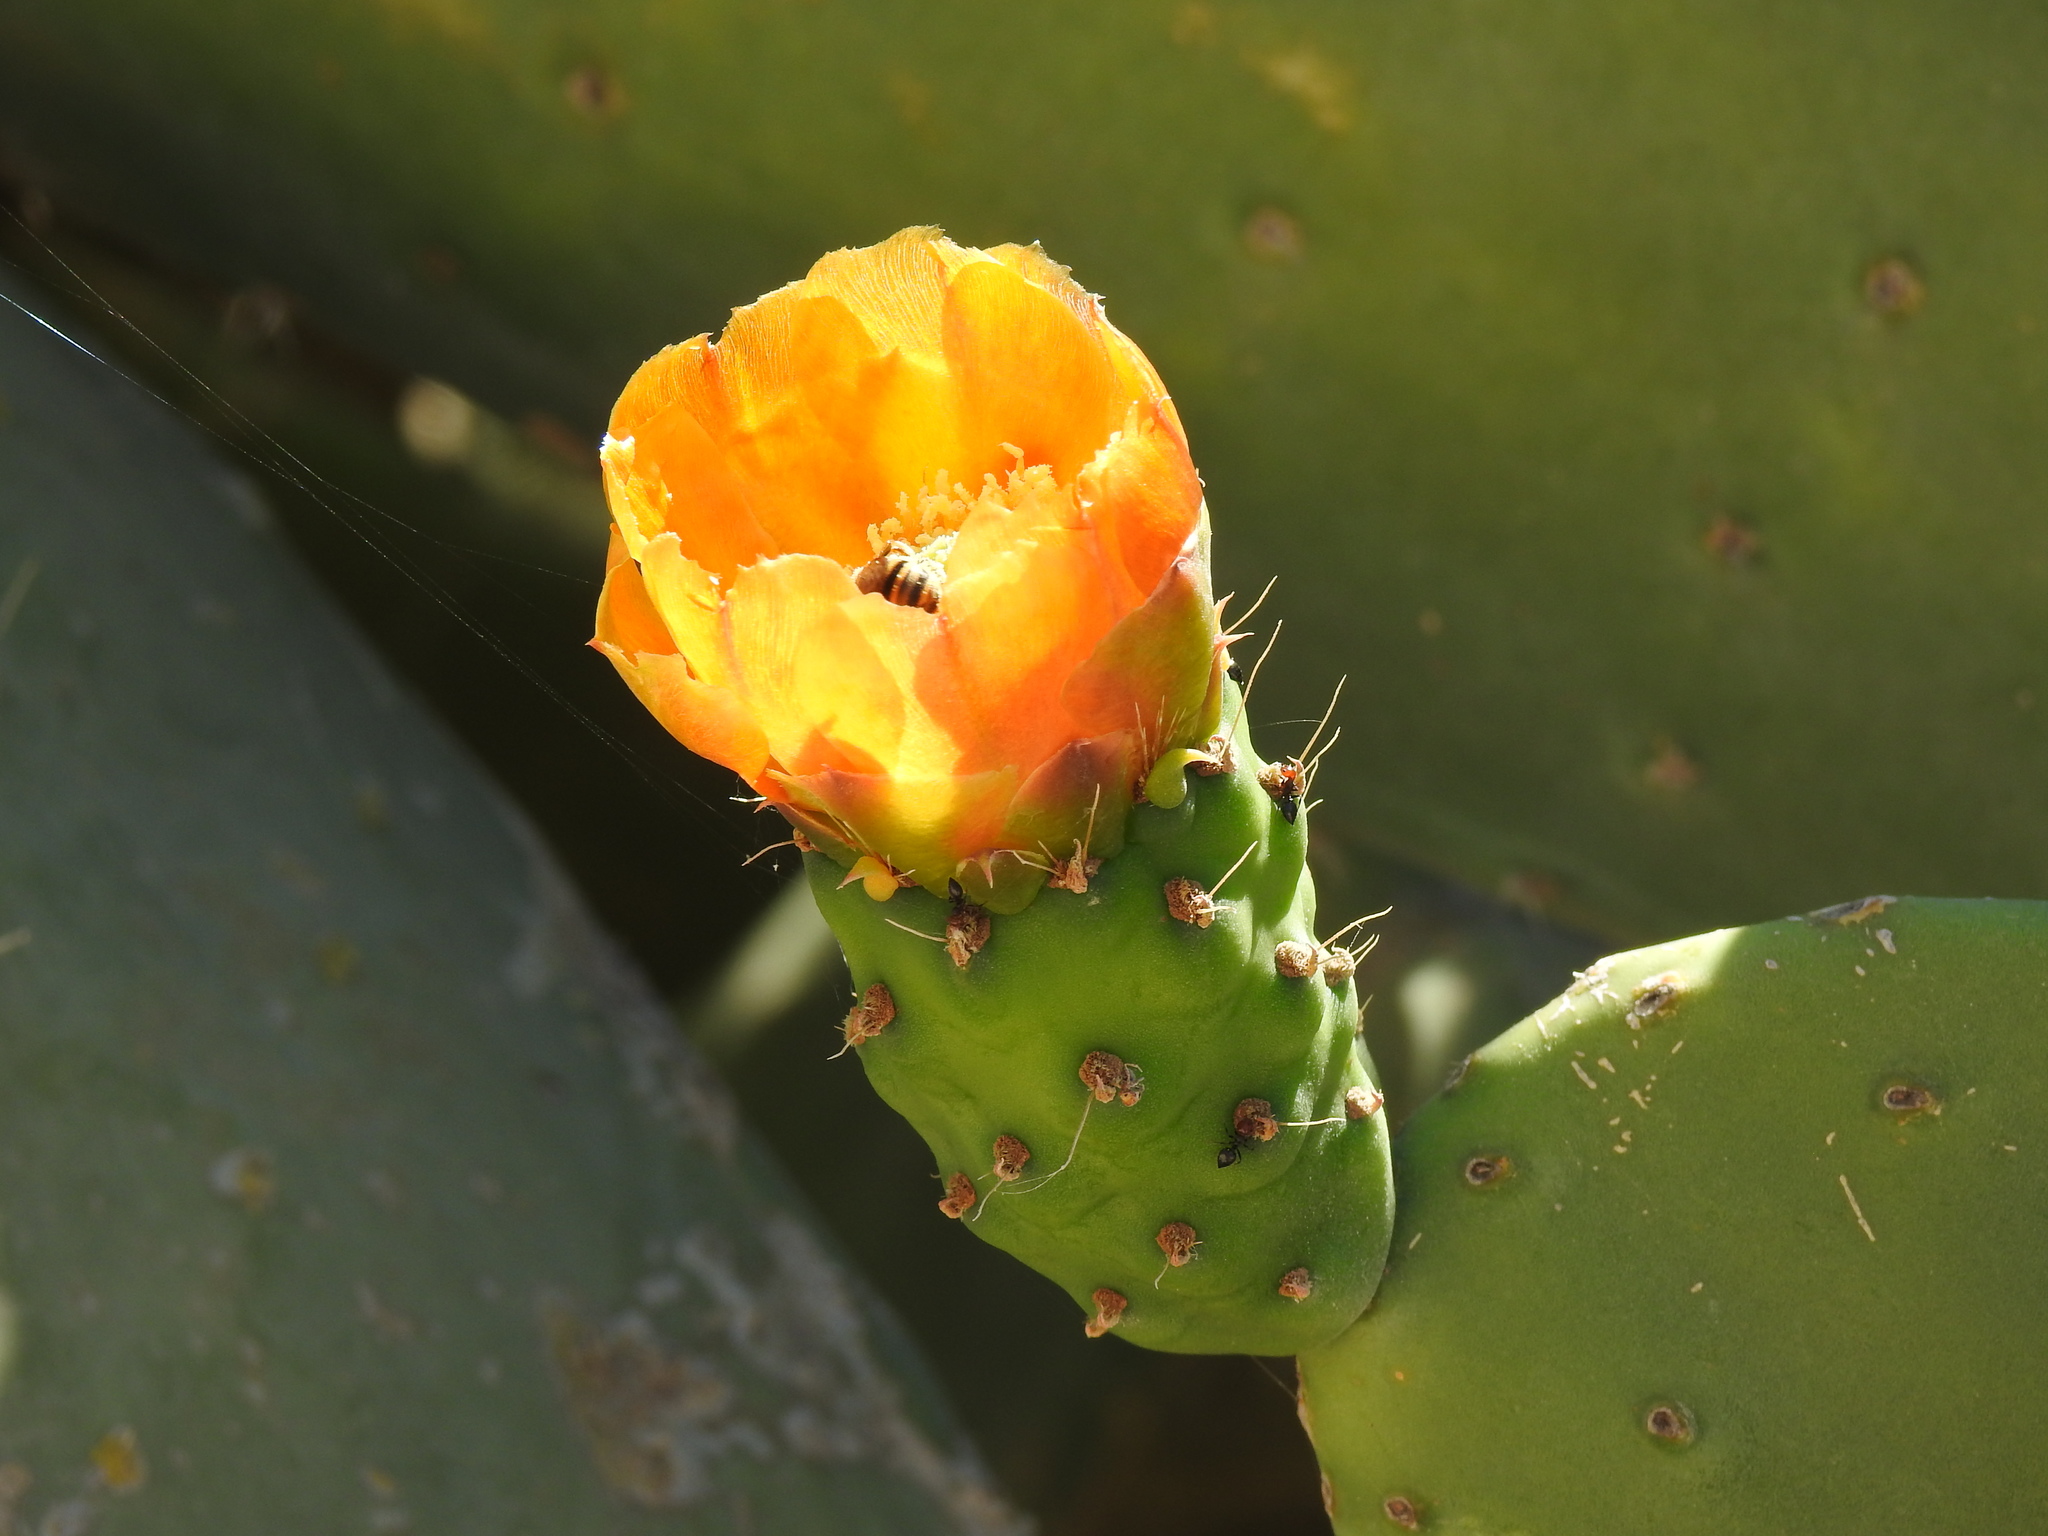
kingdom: Plantae
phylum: Tracheophyta
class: Magnoliopsida
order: Caryophyllales
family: Cactaceae
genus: Opuntia
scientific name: Opuntia ficus-indica
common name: Barbary fig
